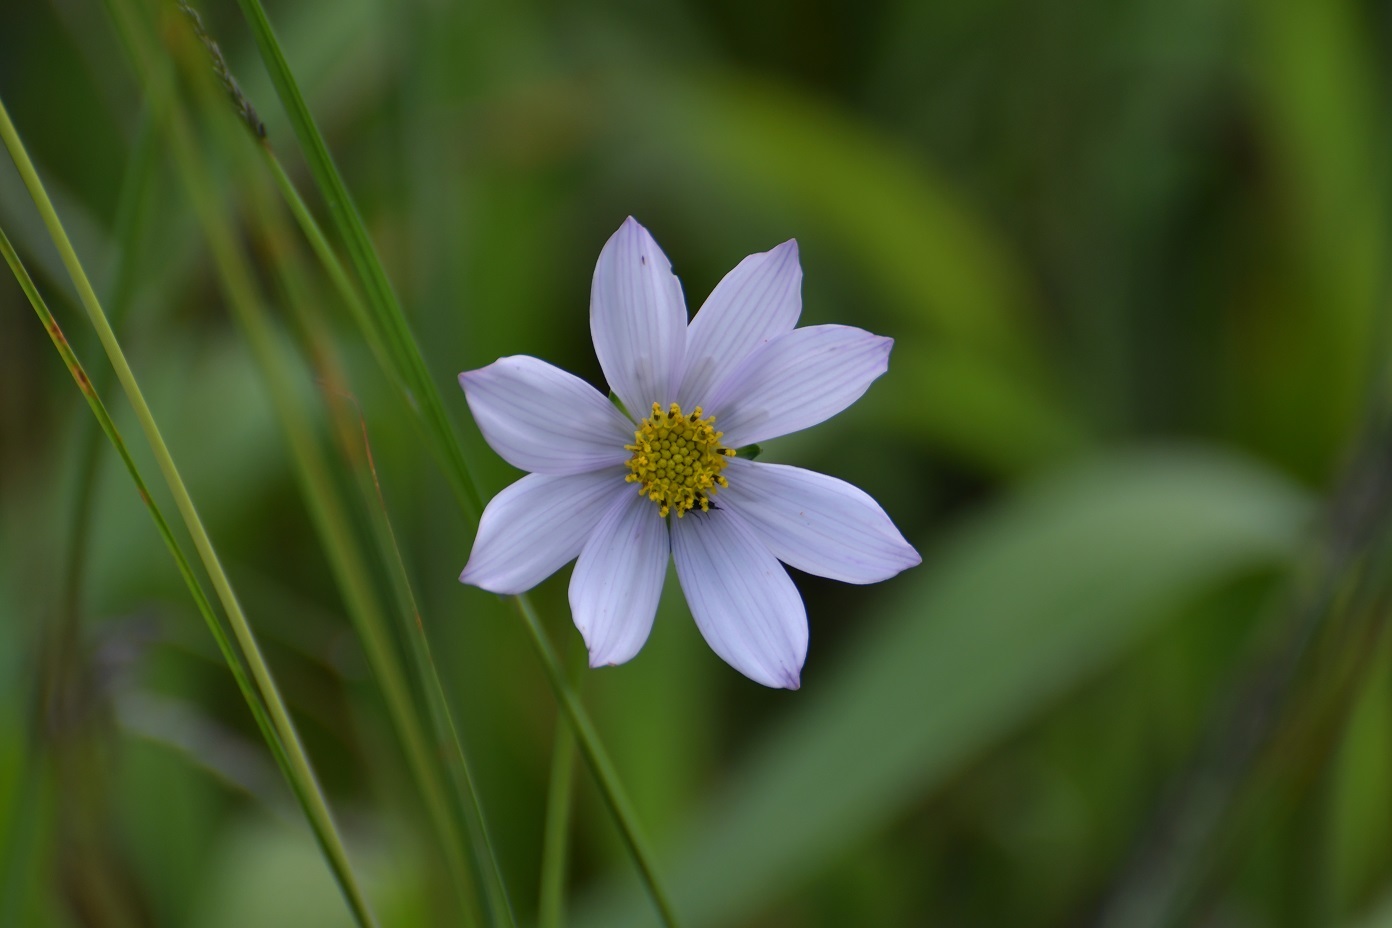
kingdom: Plantae
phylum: Tracheophyta
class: Magnoliopsida
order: Asterales
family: Asteraceae
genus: Cosmos
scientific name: Cosmos diversifolius
